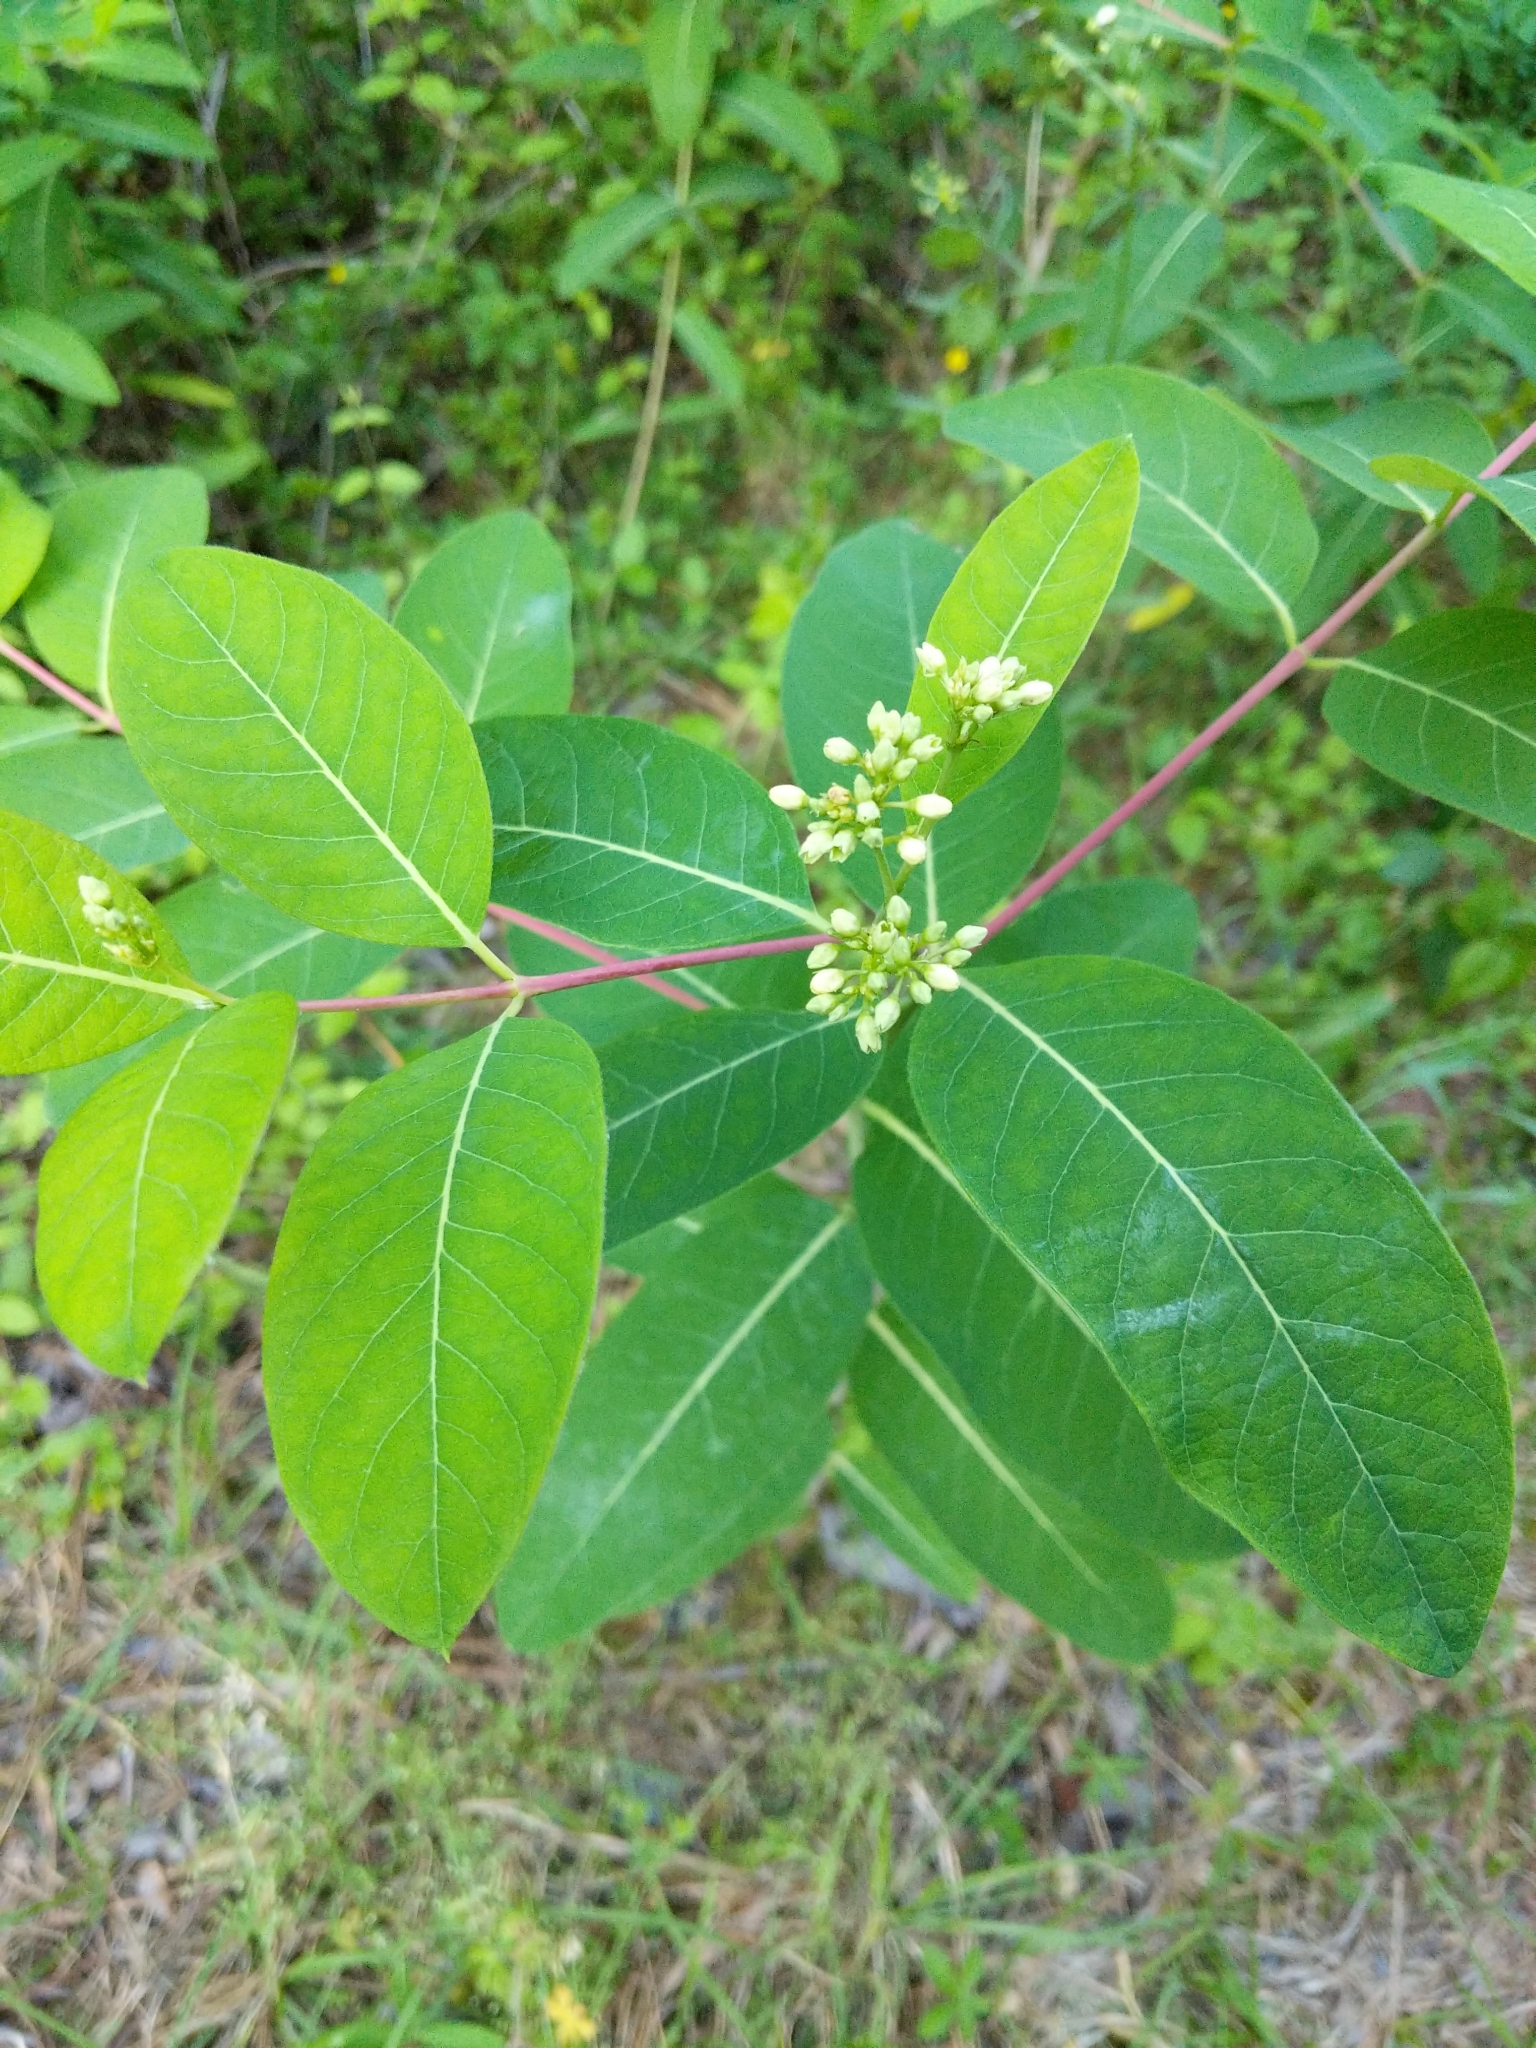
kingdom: Plantae
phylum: Tracheophyta
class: Magnoliopsida
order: Gentianales
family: Apocynaceae
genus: Apocynum
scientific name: Apocynum cannabinum
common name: Hemp dogbane
